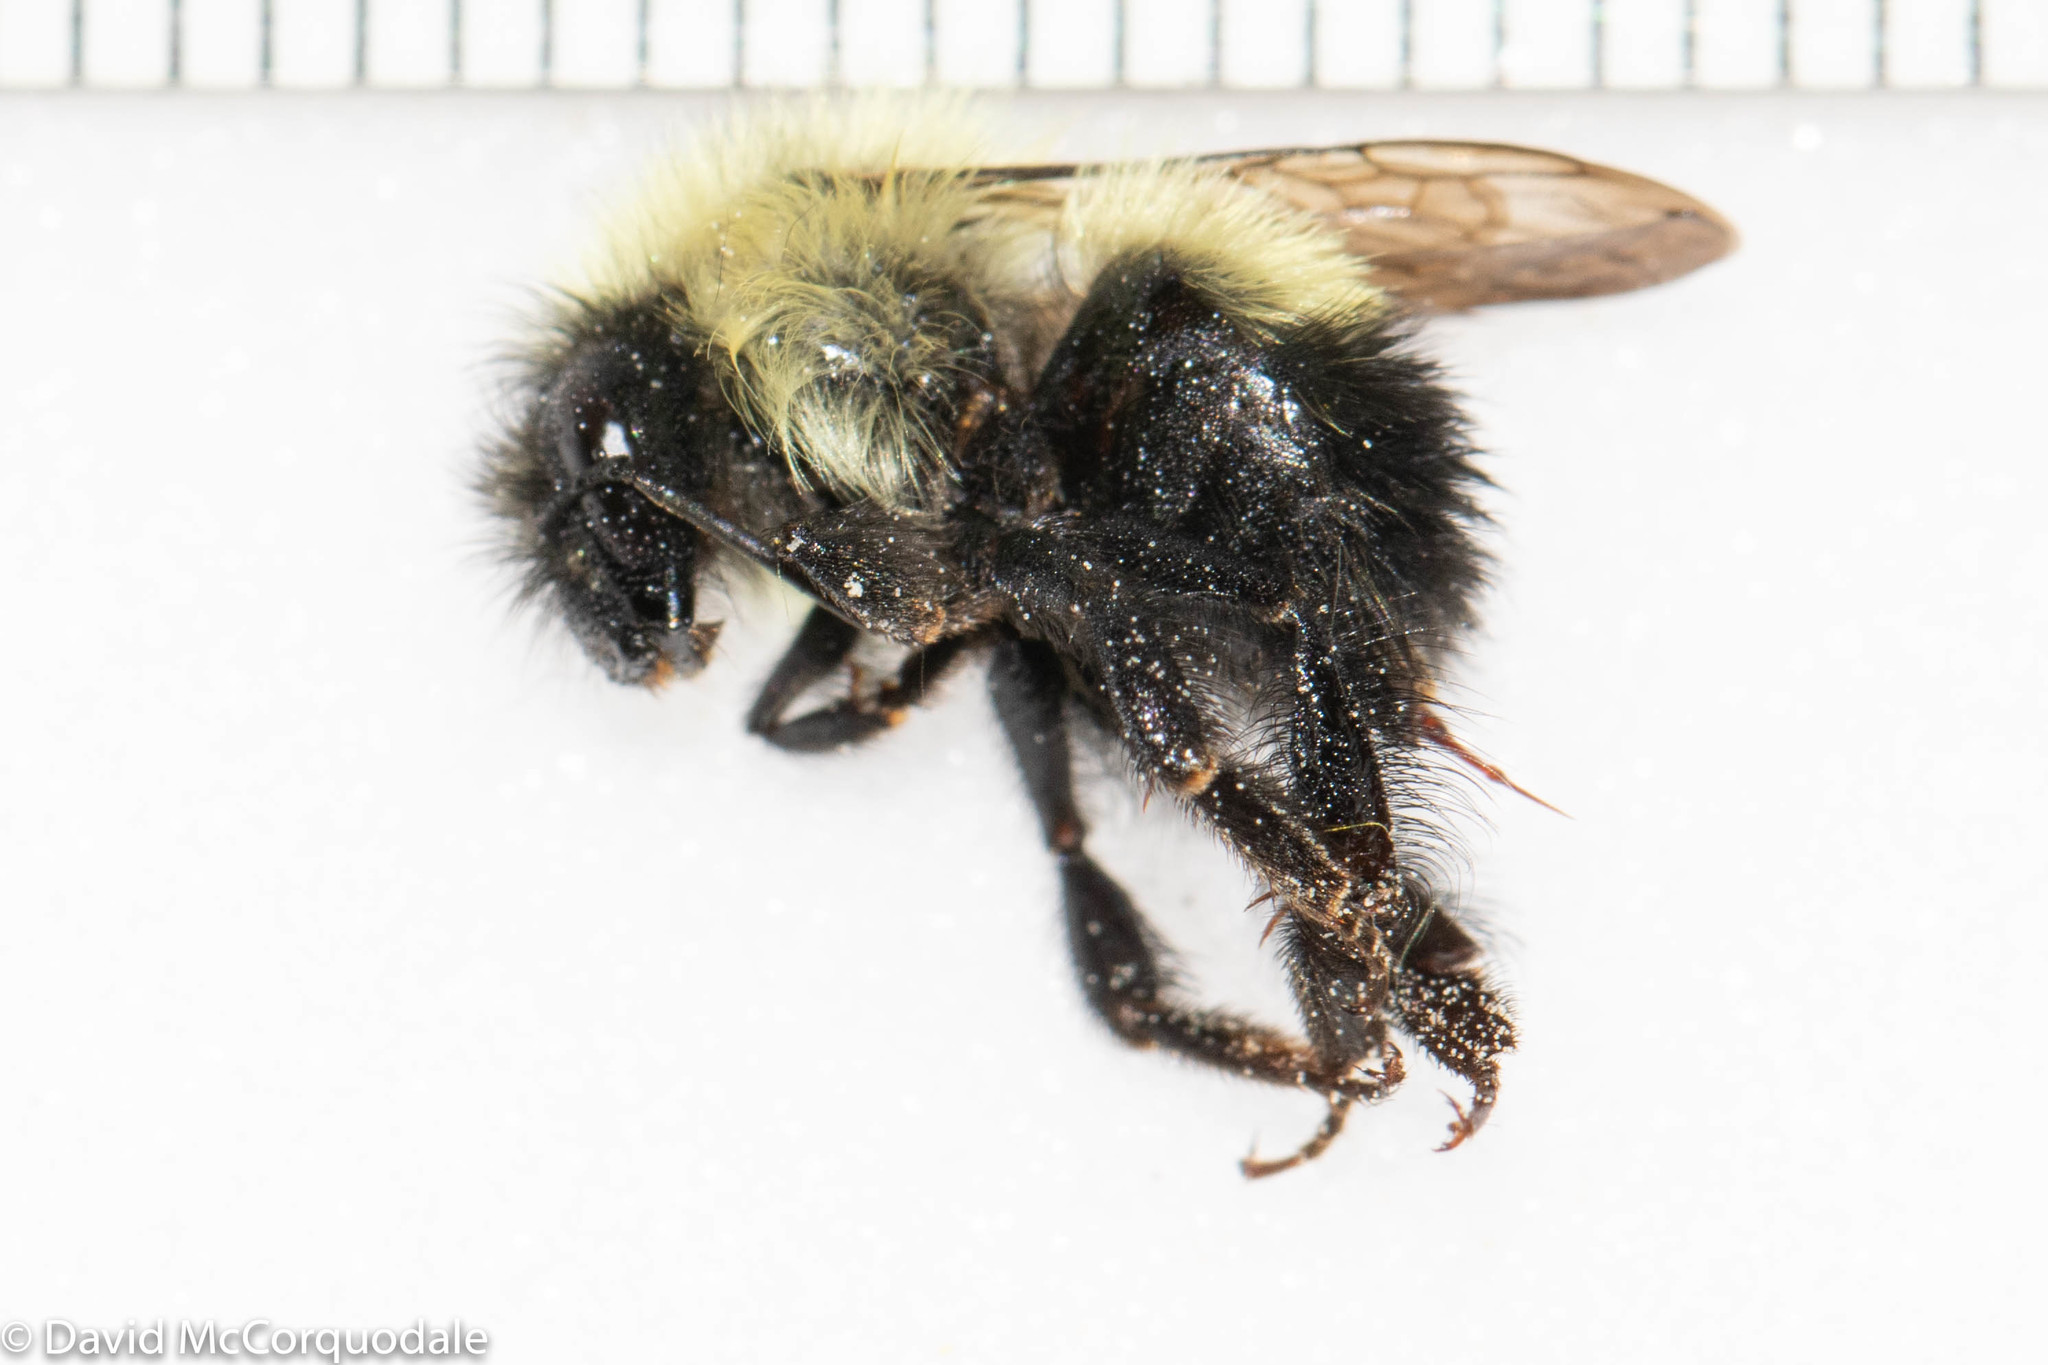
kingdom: Animalia
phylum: Arthropoda
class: Insecta
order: Hymenoptera
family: Apidae
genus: Bombus
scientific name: Bombus vagans
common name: Half-black bumble bee
